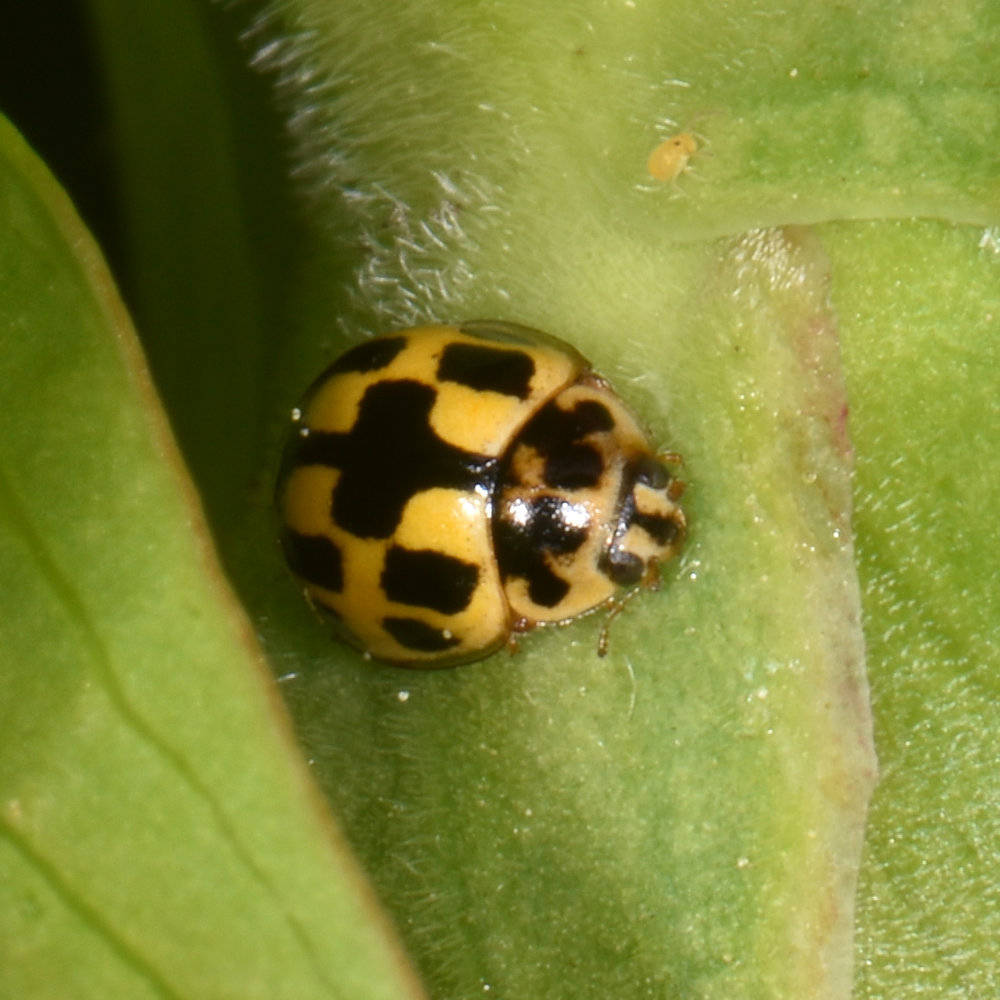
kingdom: Animalia
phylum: Arthropoda
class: Insecta
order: Coleoptera
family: Coccinellidae
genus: Propylaea
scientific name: Propylaea quatuordecimpunctata
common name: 14-spotted ladybird beetle
